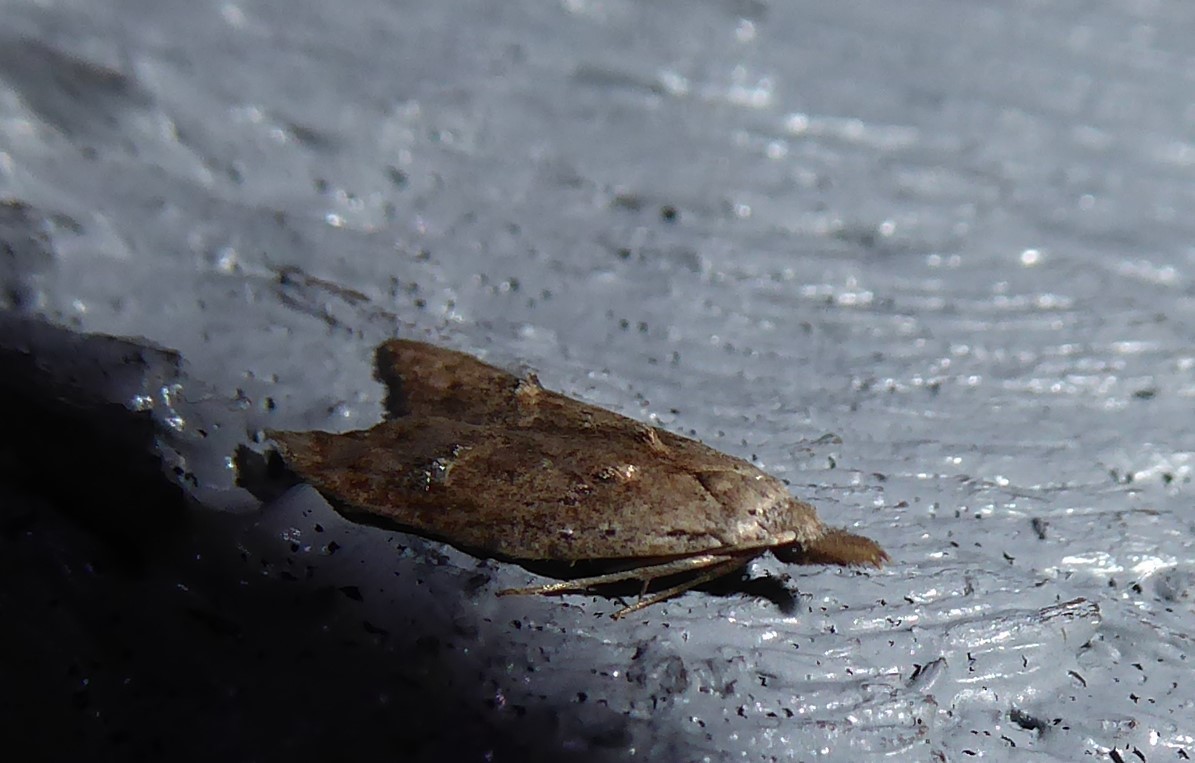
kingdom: Animalia
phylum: Arthropoda
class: Insecta
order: Lepidoptera
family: Carposinidae
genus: Carposina
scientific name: Carposina rubophaga
